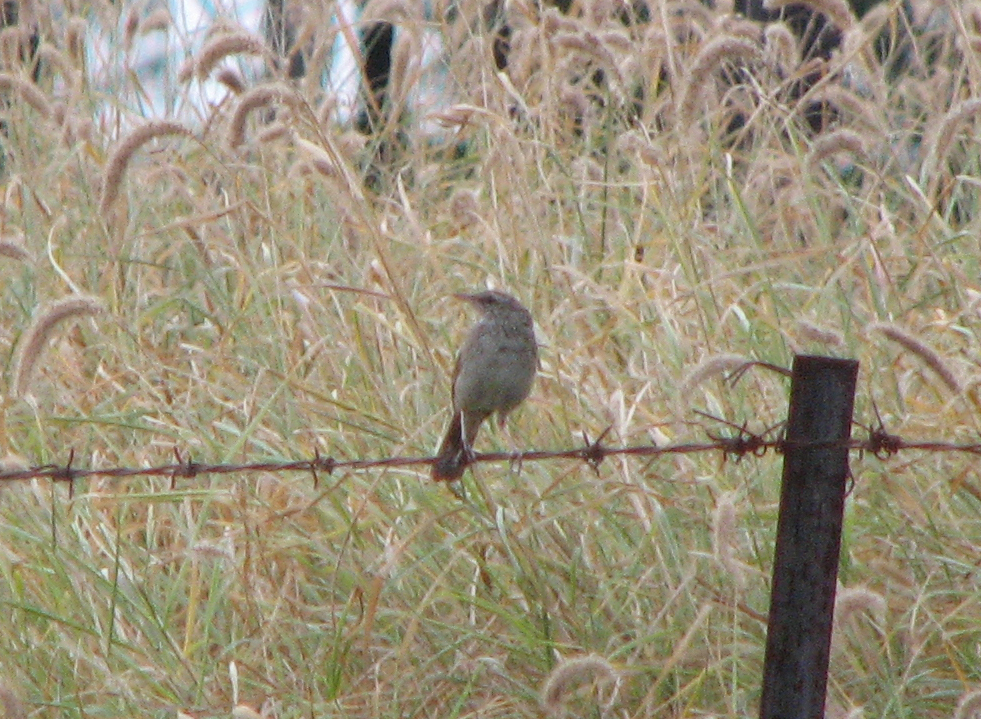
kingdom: Animalia
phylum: Chordata
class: Aves
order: Passeriformes
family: Locustellidae
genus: Megalurus
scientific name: Megalurus cruralis
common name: Brown songlark
